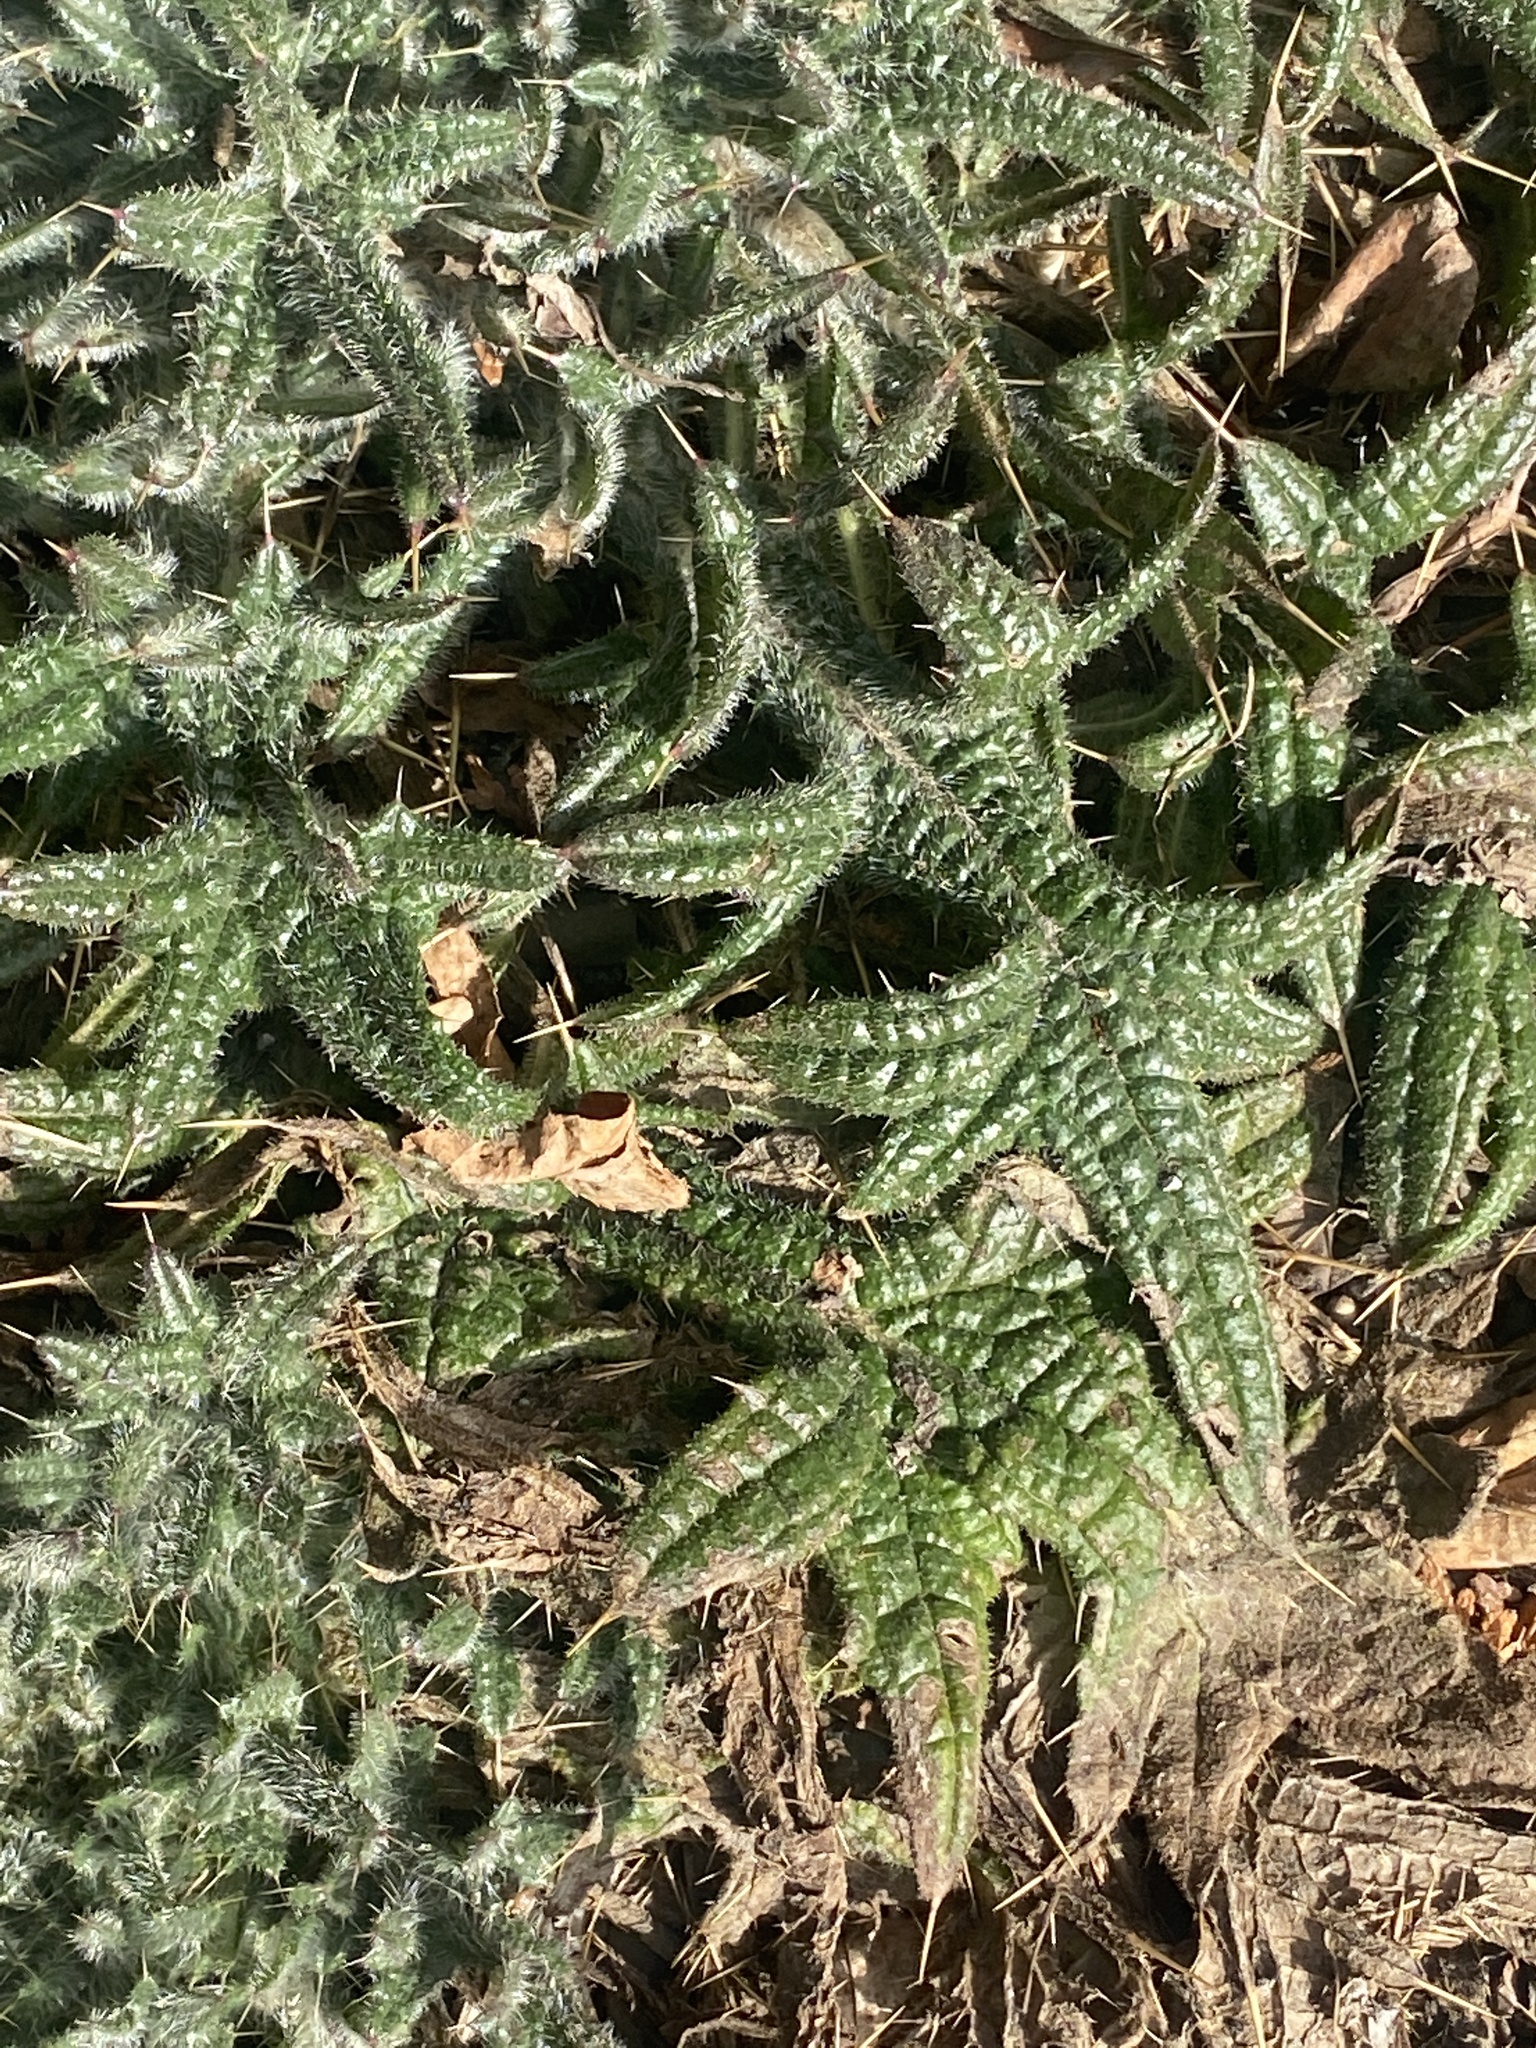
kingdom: Plantae
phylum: Tracheophyta
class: Magnoliopsida
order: Asterales
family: Asteraceae
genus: Cirsium
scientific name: Cirsium vulgare
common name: Bull thistle
